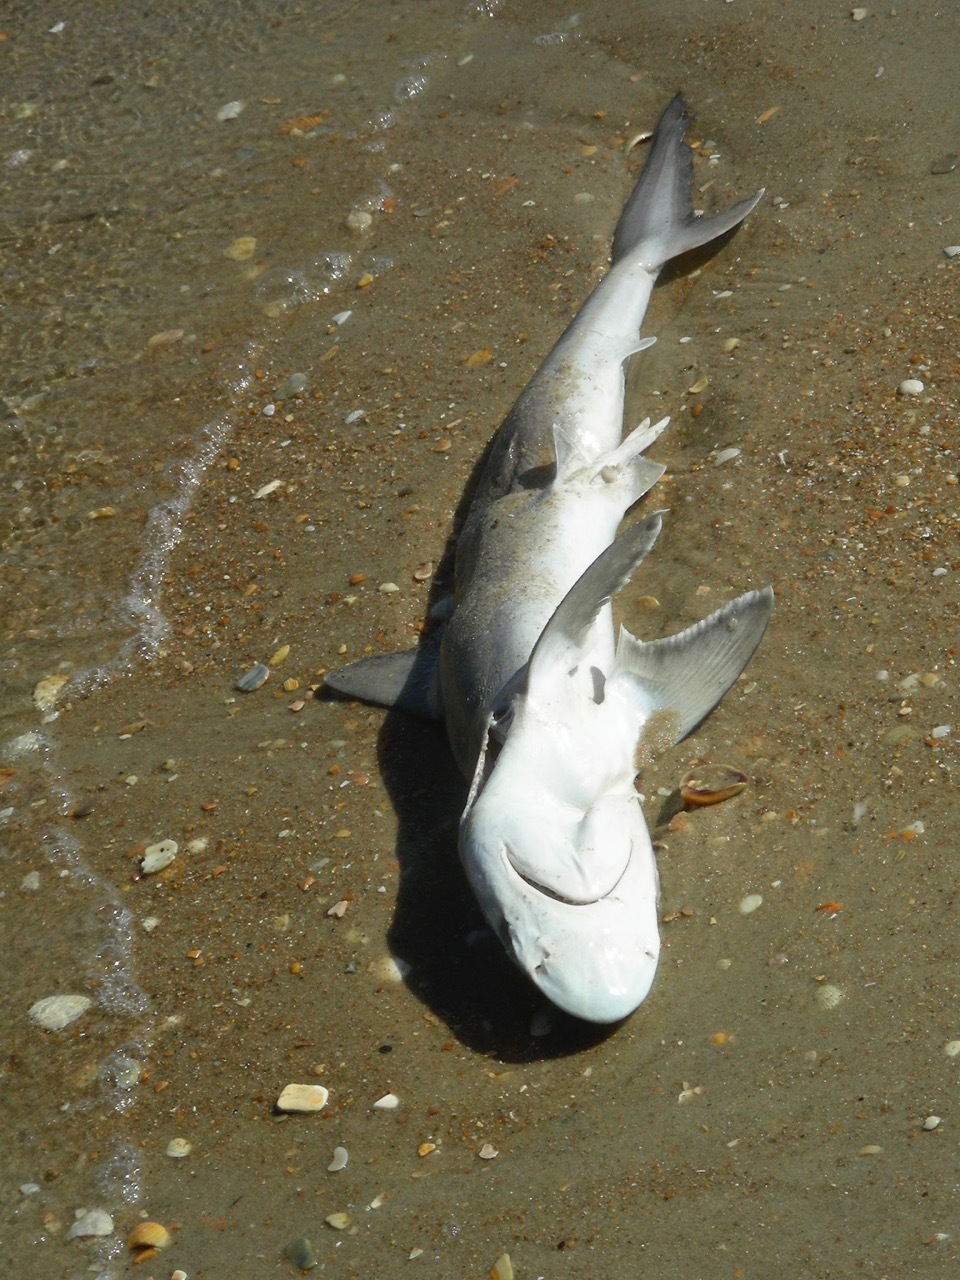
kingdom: Animalia
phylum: Chordata
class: Elasmobranchii
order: Carcharhiniformes
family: Carcharhinidae
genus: Carcharhinus
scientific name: Carcharhinus plumbeus
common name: Sandbar shark
